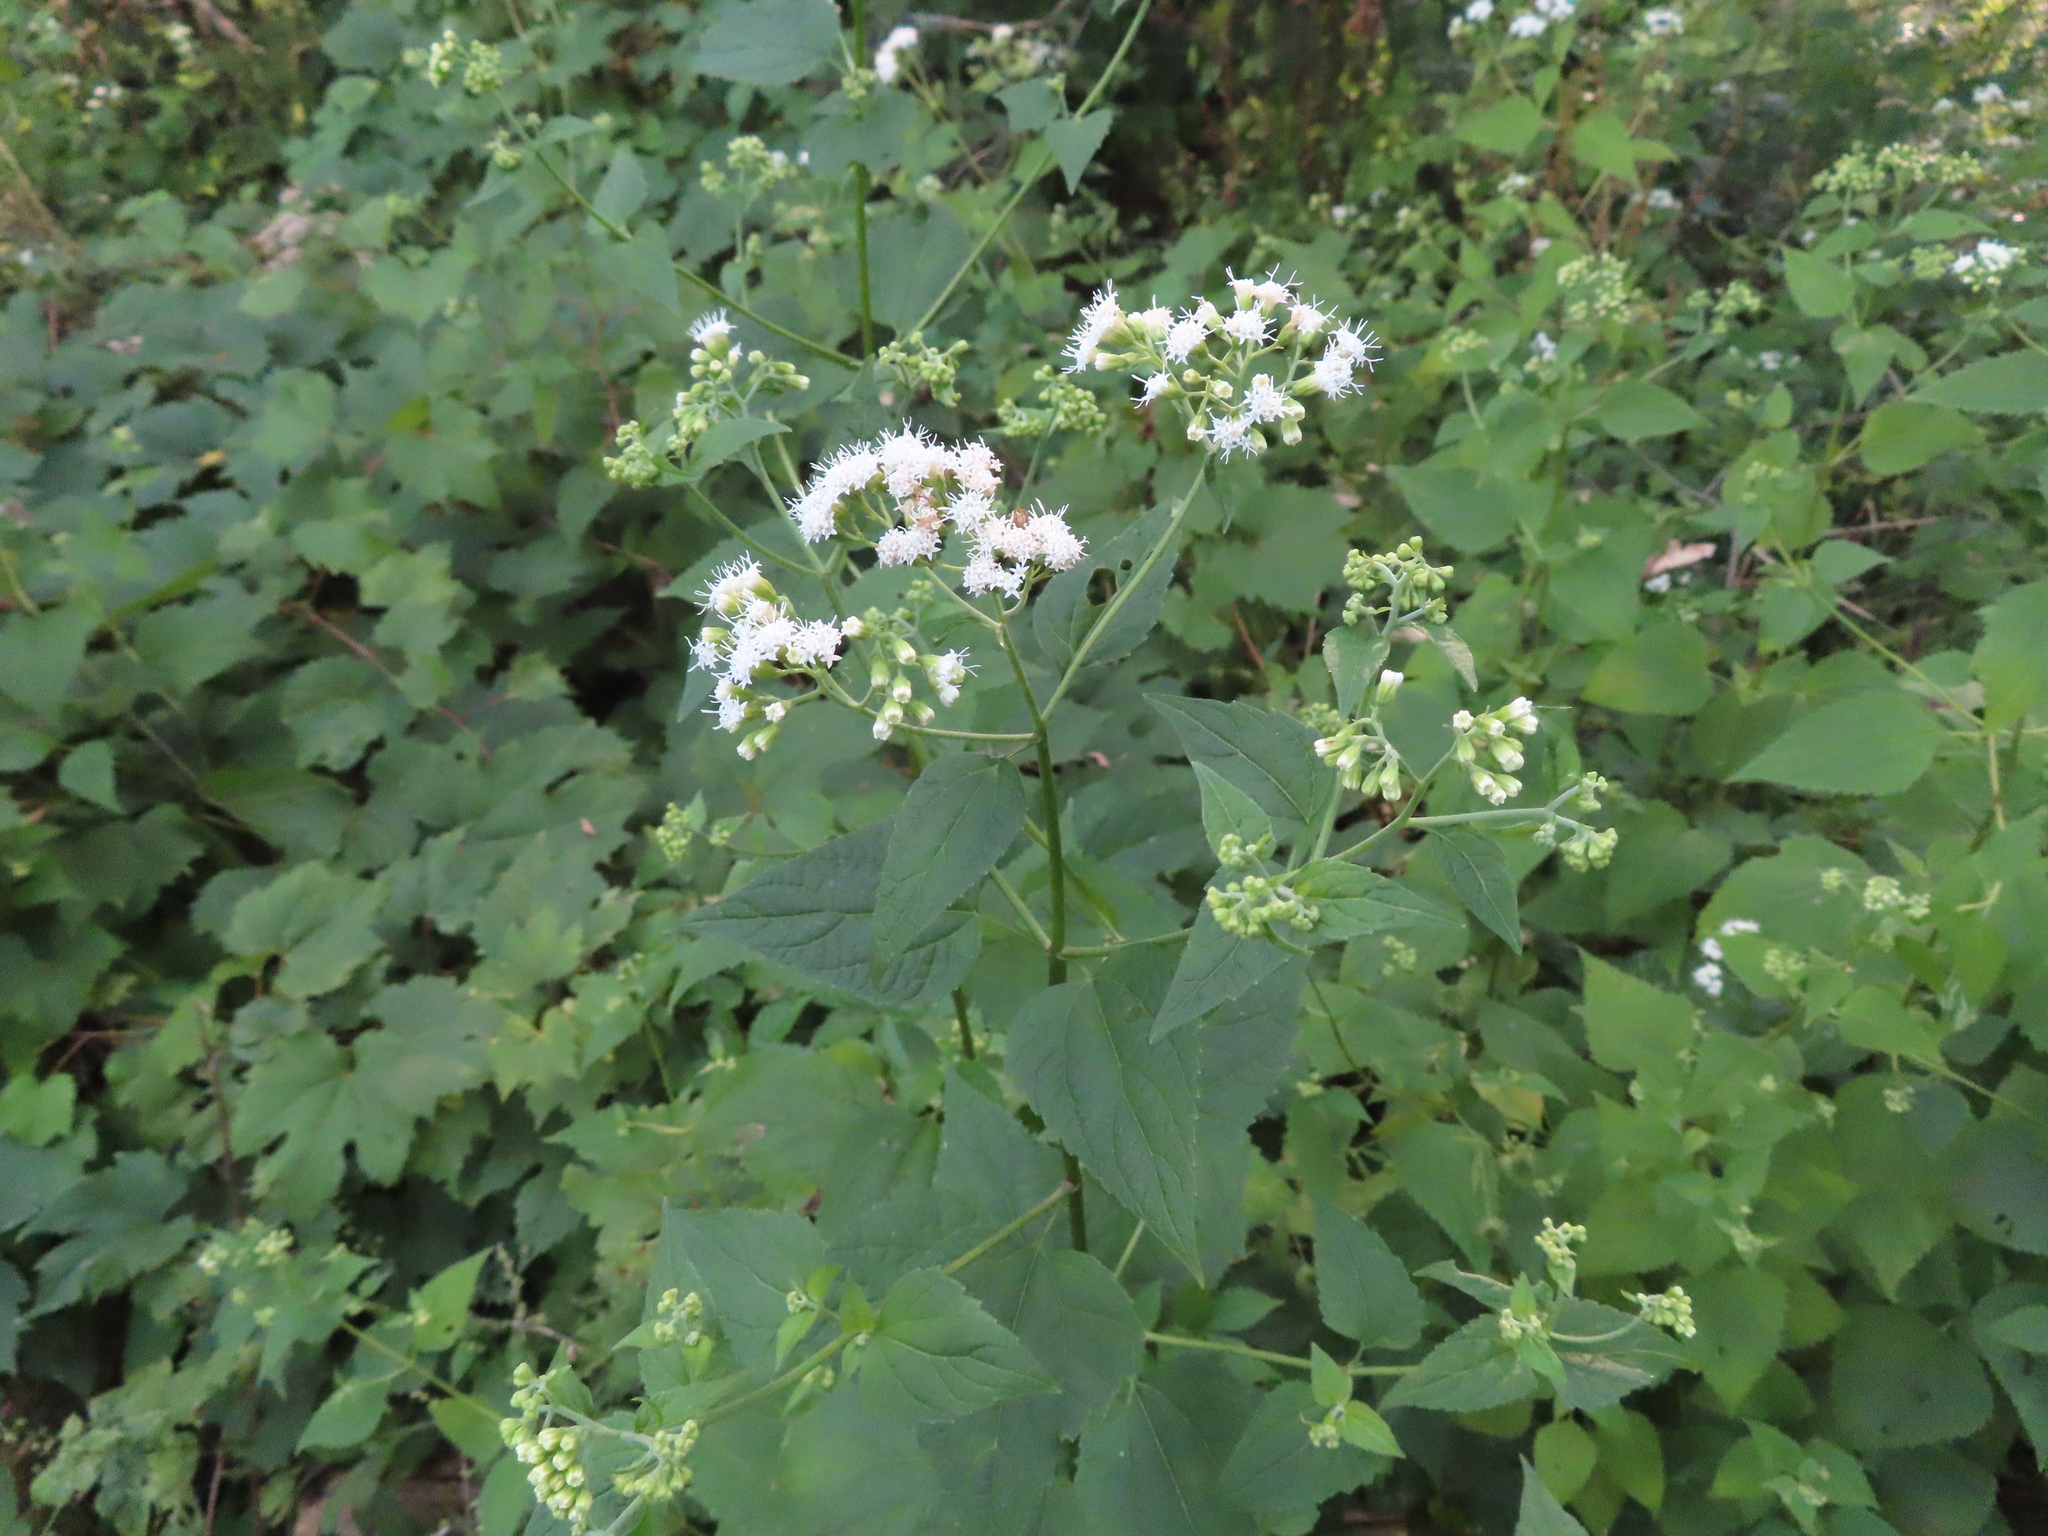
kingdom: Plantae
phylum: Tracheophyta
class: Magnoliopsida
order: Asterales
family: Asteraceae
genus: Ageratina
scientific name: Ageratina altissima
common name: White snakeroot
